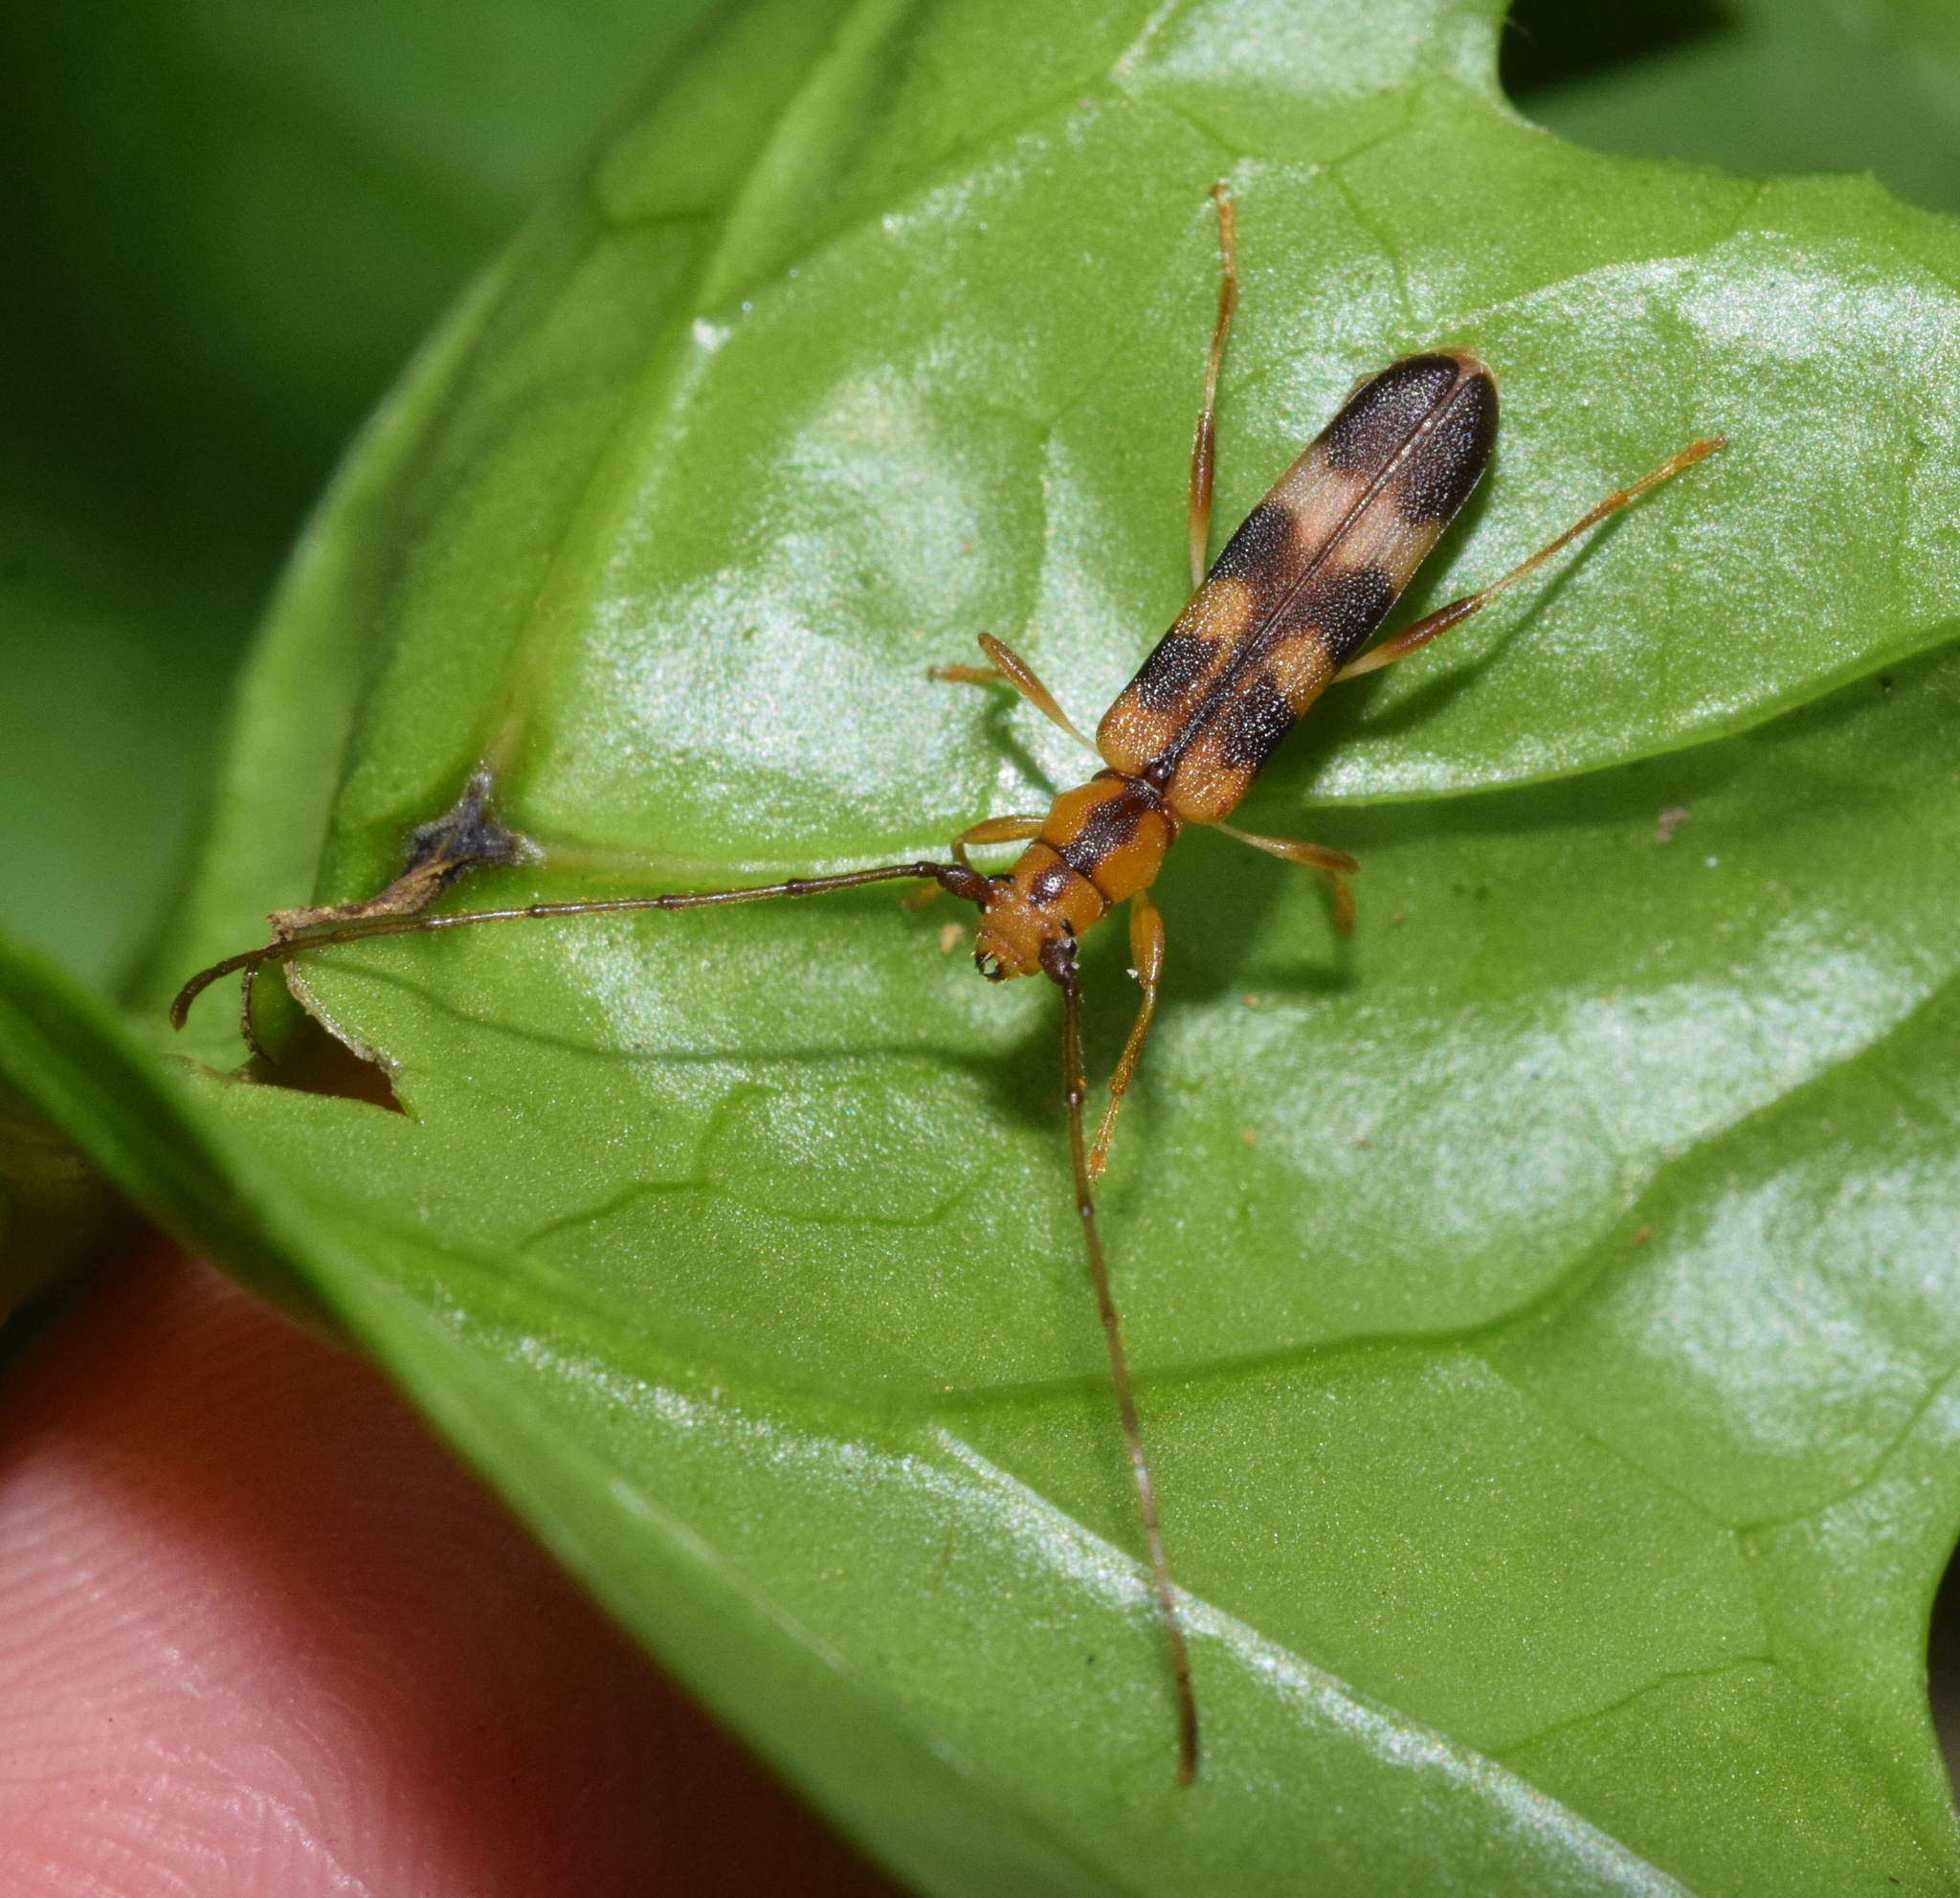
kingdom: Animalia
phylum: Arthropoda
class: Insecta
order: Coleoptera
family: Cerambycidae
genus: Ethiolygrus
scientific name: Ethiolygrus
